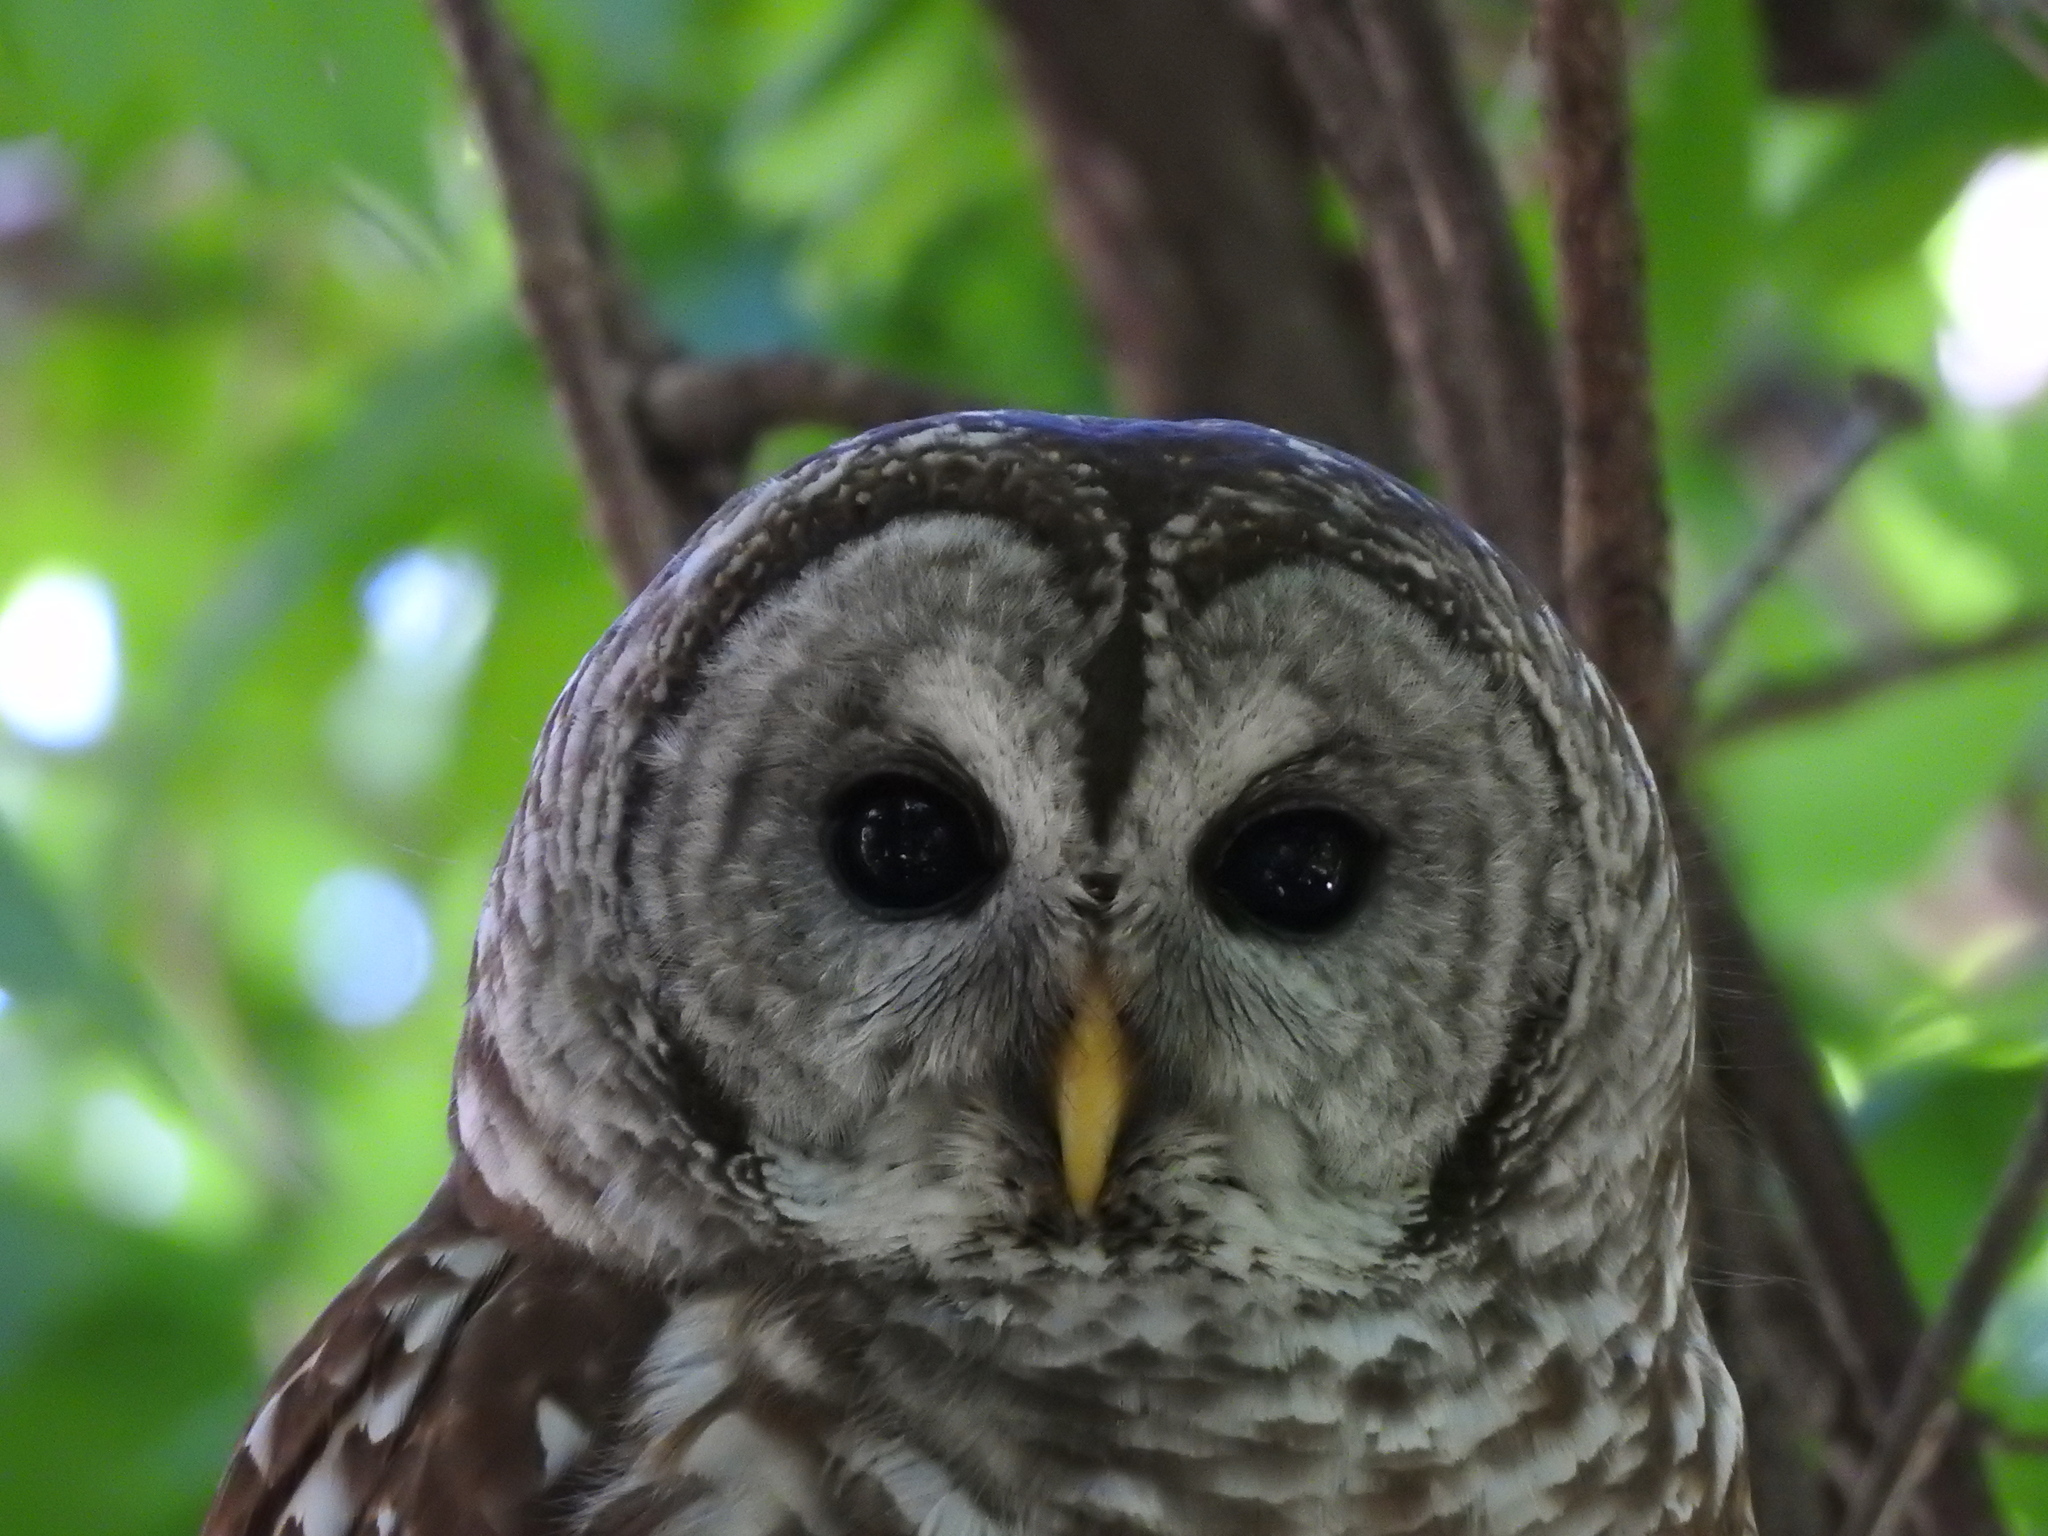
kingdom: Animalia
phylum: Chordata
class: Aves
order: Strigiformes
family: Strigidae
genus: Strix
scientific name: Strix varia
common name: Barred owl
